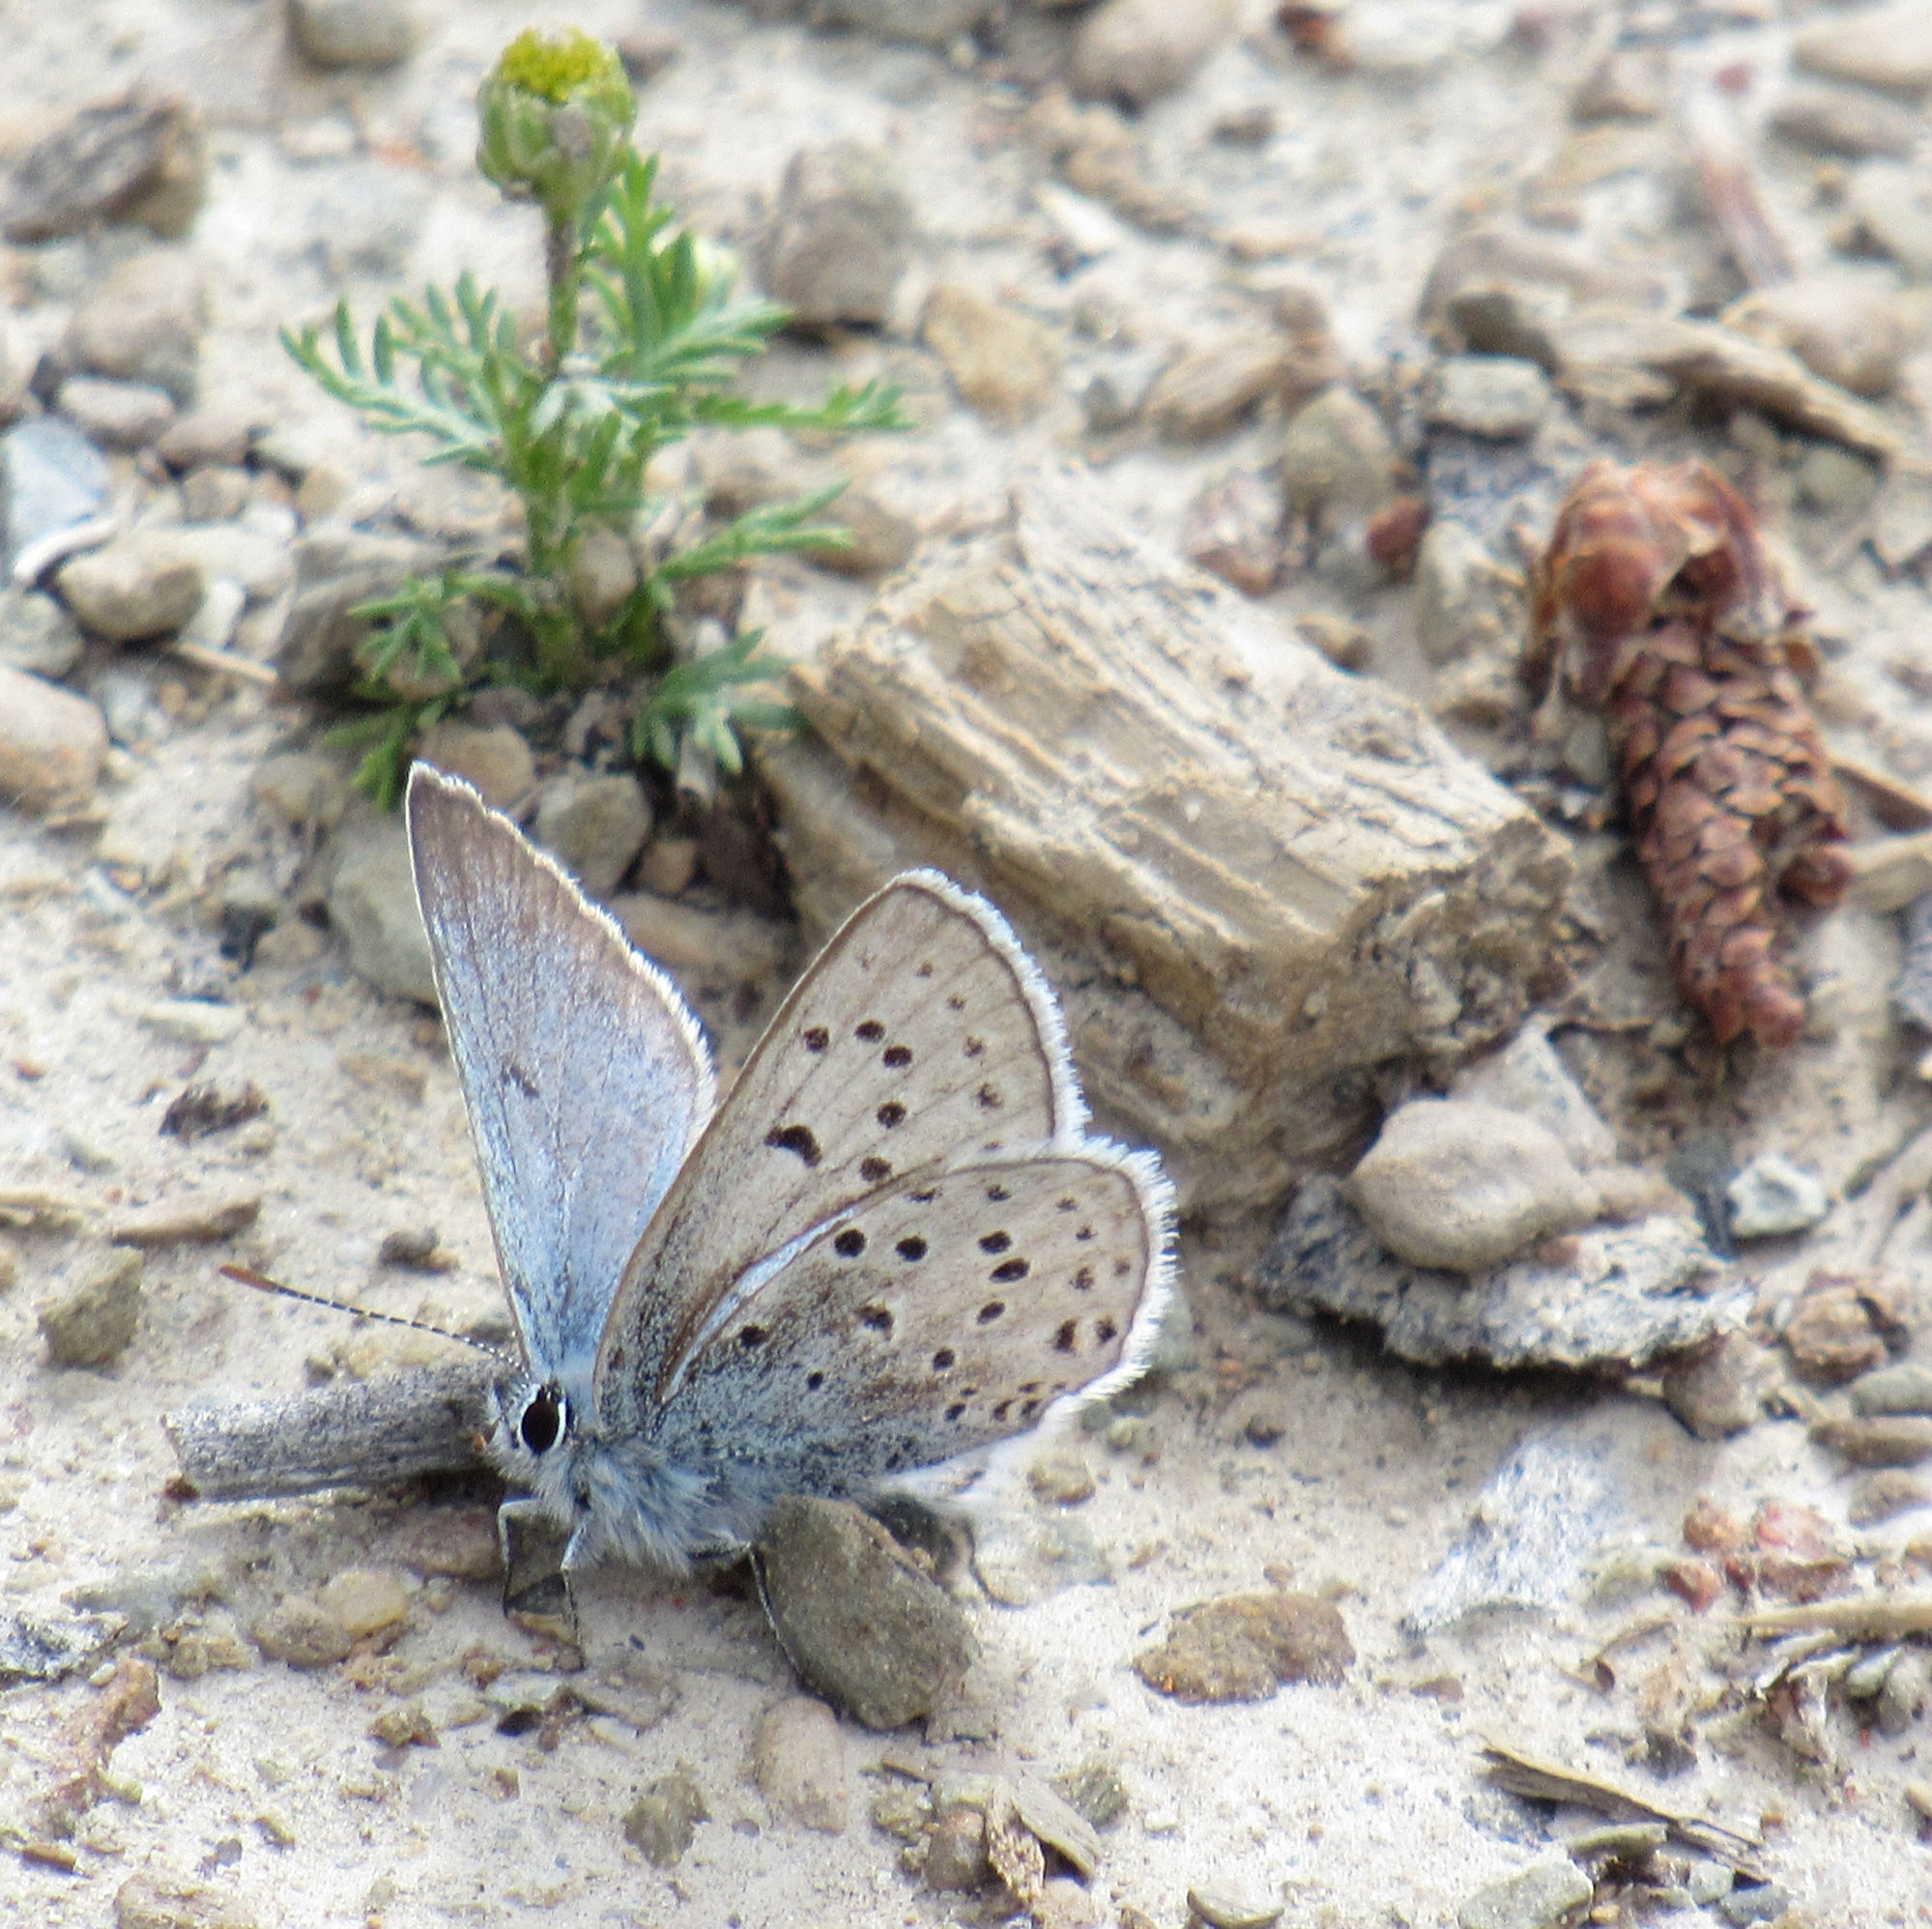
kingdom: Animalia
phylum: Arthropoda
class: Insecta
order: Lepidoptera
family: Lycaenidae
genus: Icaricia
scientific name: Icaricia saepiolus
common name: Greenish blue
